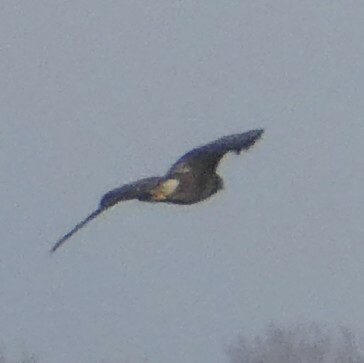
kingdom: Animalia
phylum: Chordata
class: Aves
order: Accipitriformes
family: Accipitridae
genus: Buteo
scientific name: Buteo buteo
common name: Common buzzard
